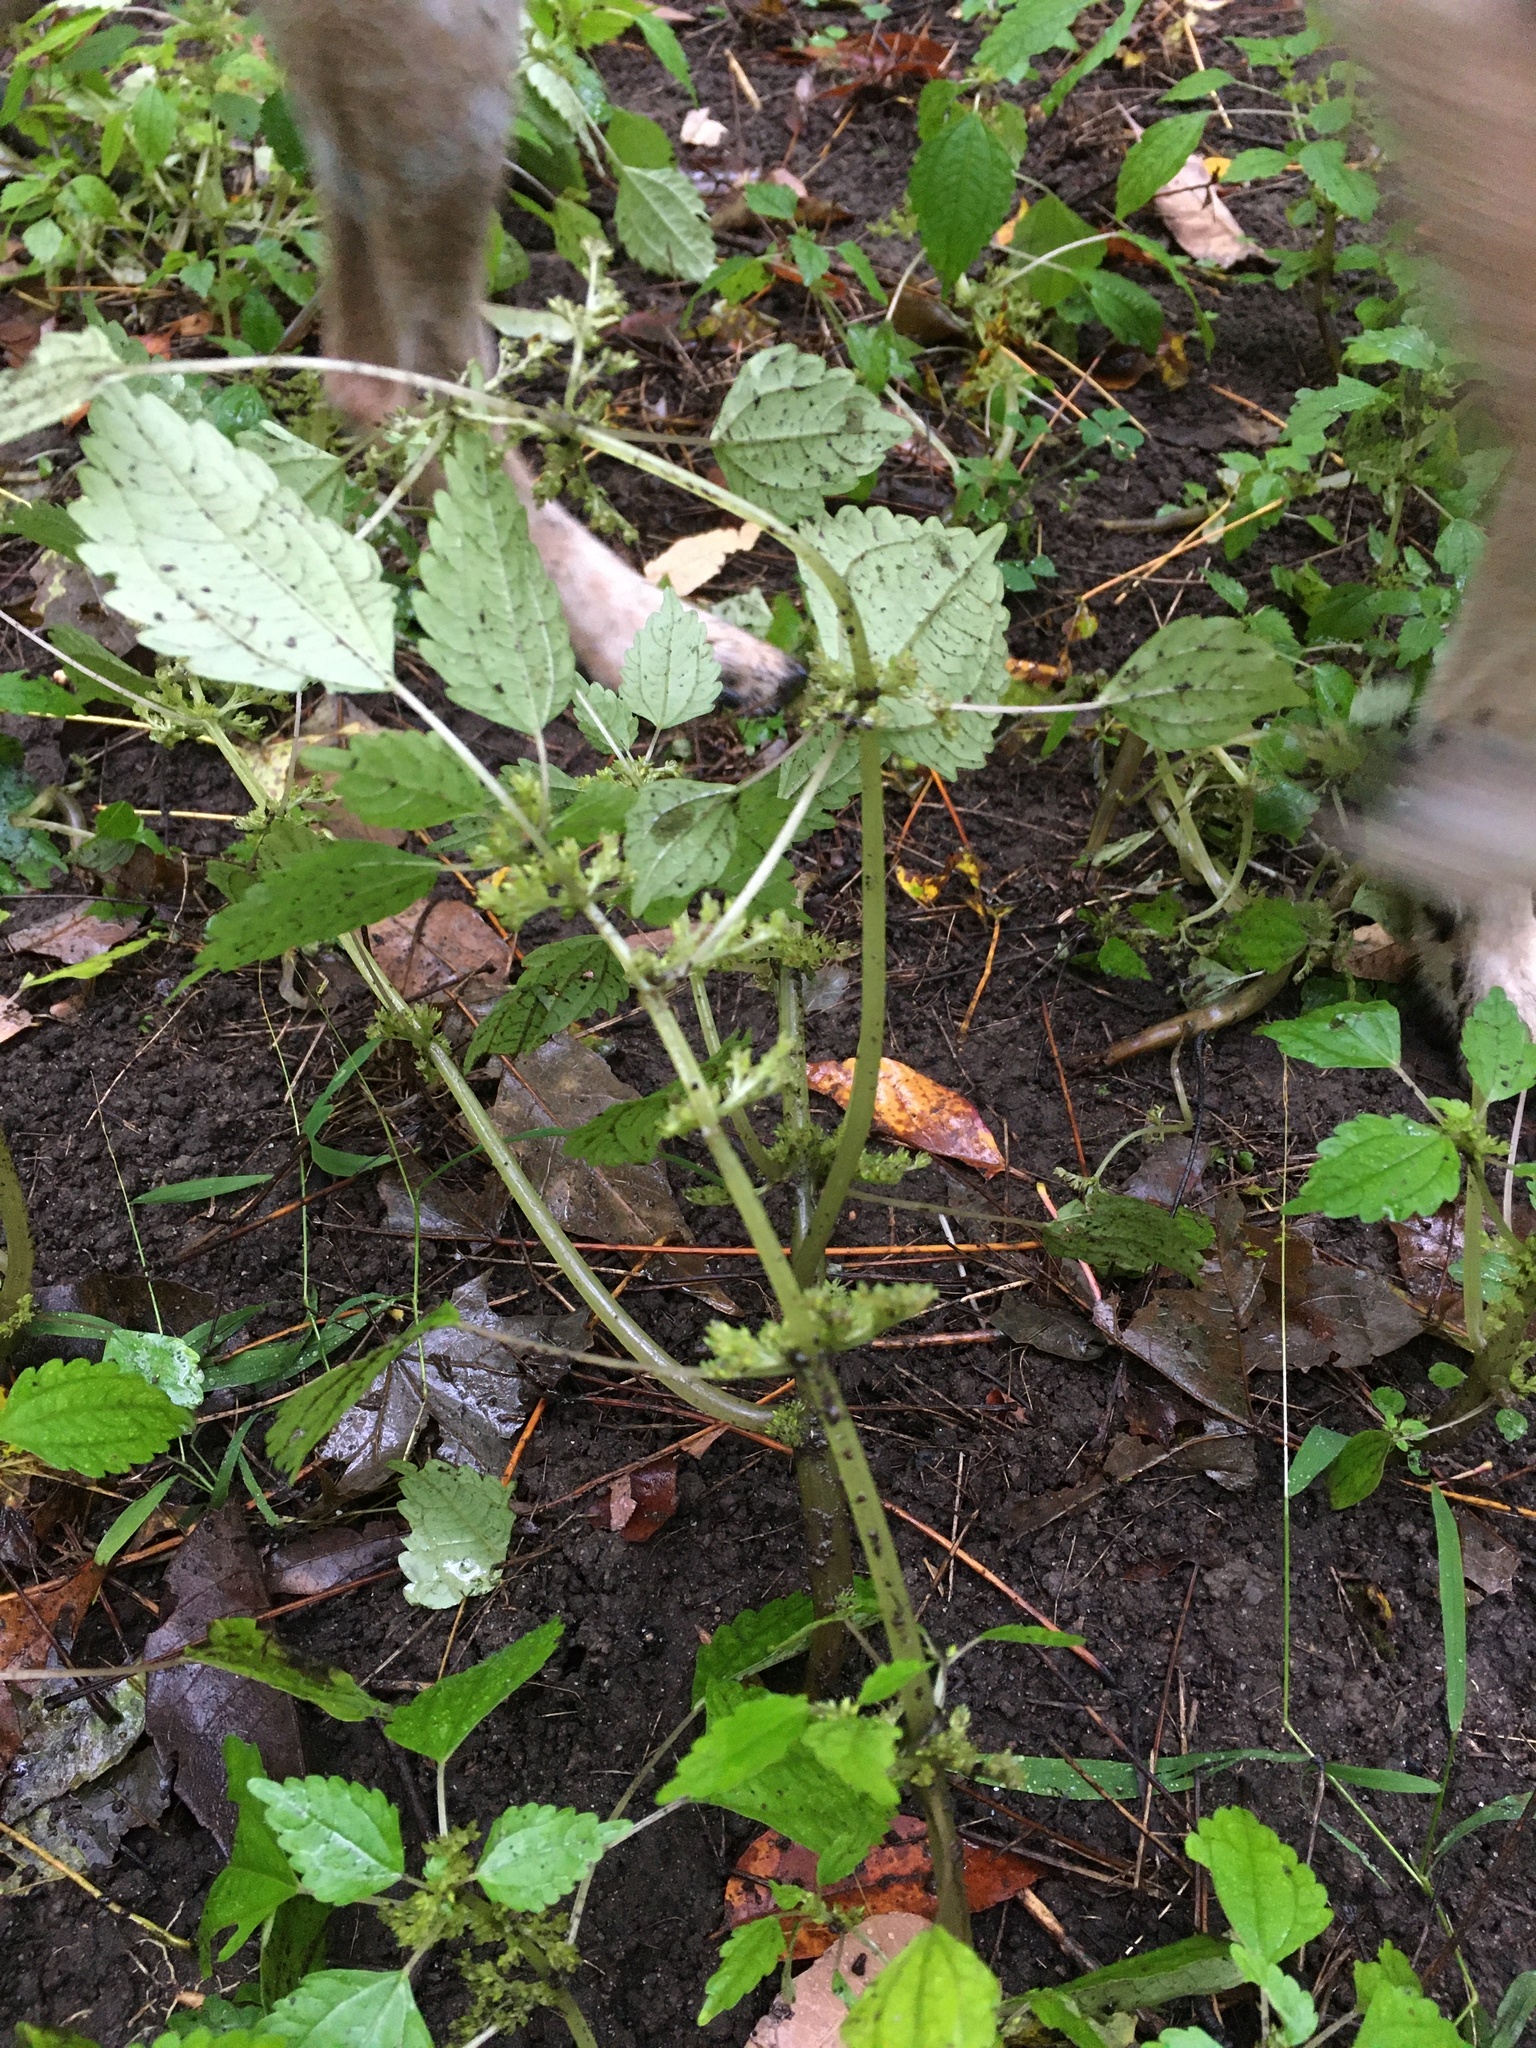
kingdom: Plantae
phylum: Tracheophyta
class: Magnoliopsida
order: Rosales
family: Urticaceae
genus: Pilea
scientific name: Pilea pumila
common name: Clearweed
